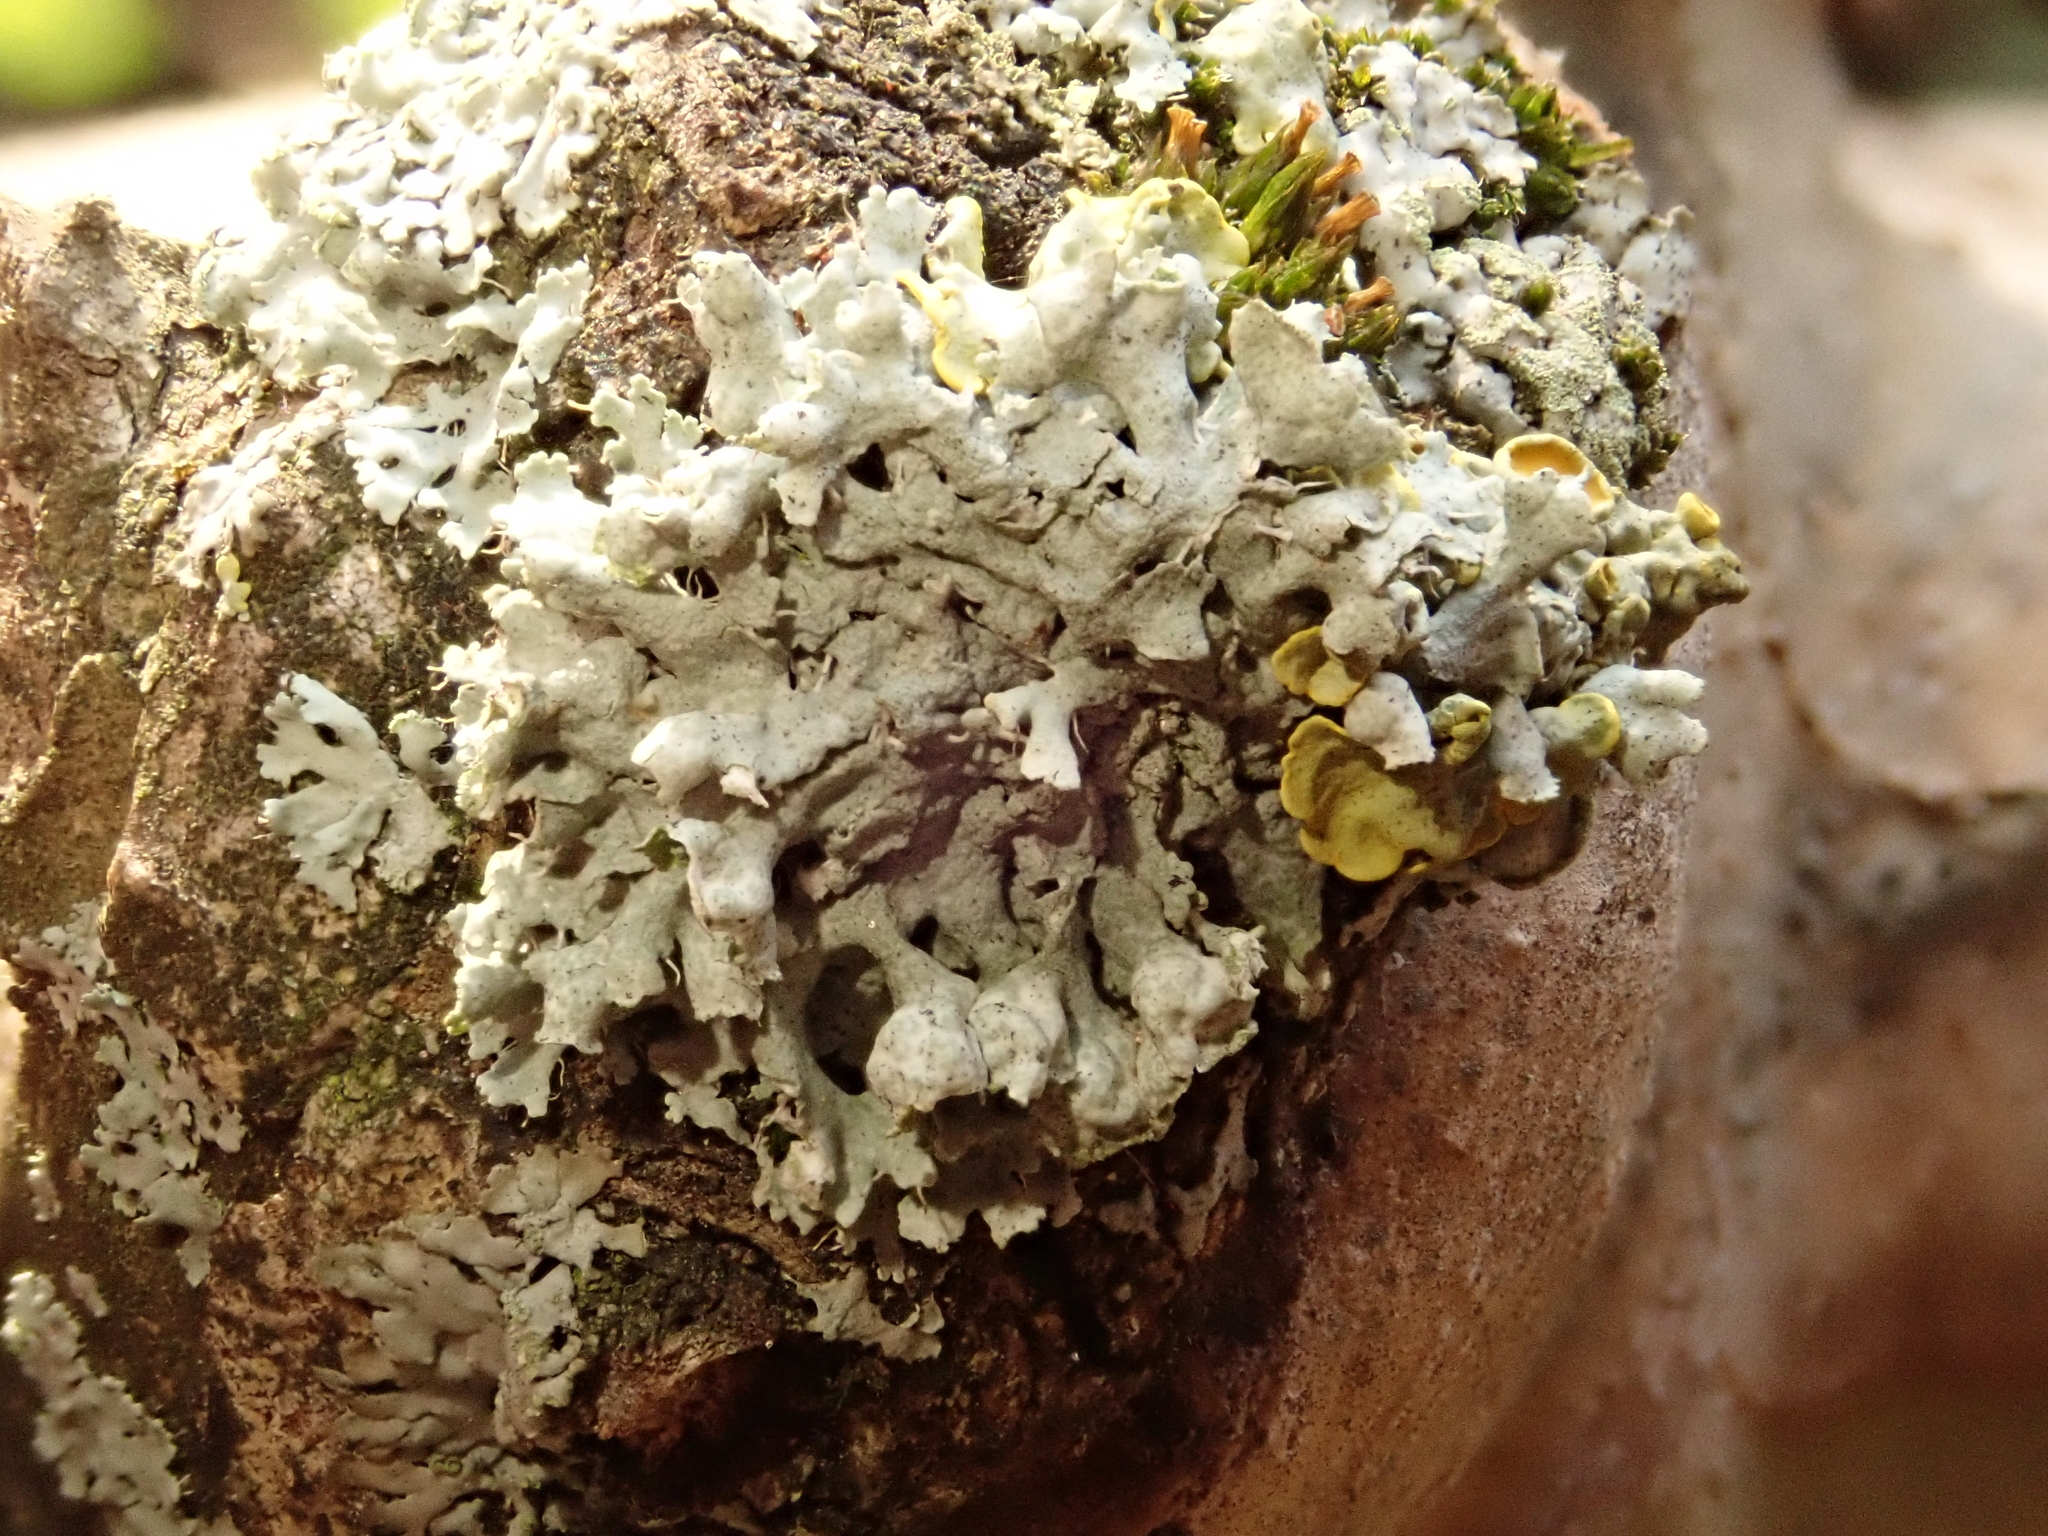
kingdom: Fungi
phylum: Ascomycota
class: Lecanoromycetes
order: Caliciales
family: Physciaceae
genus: Physcia
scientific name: Physcia adscendens
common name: Hooded rosette lichen
